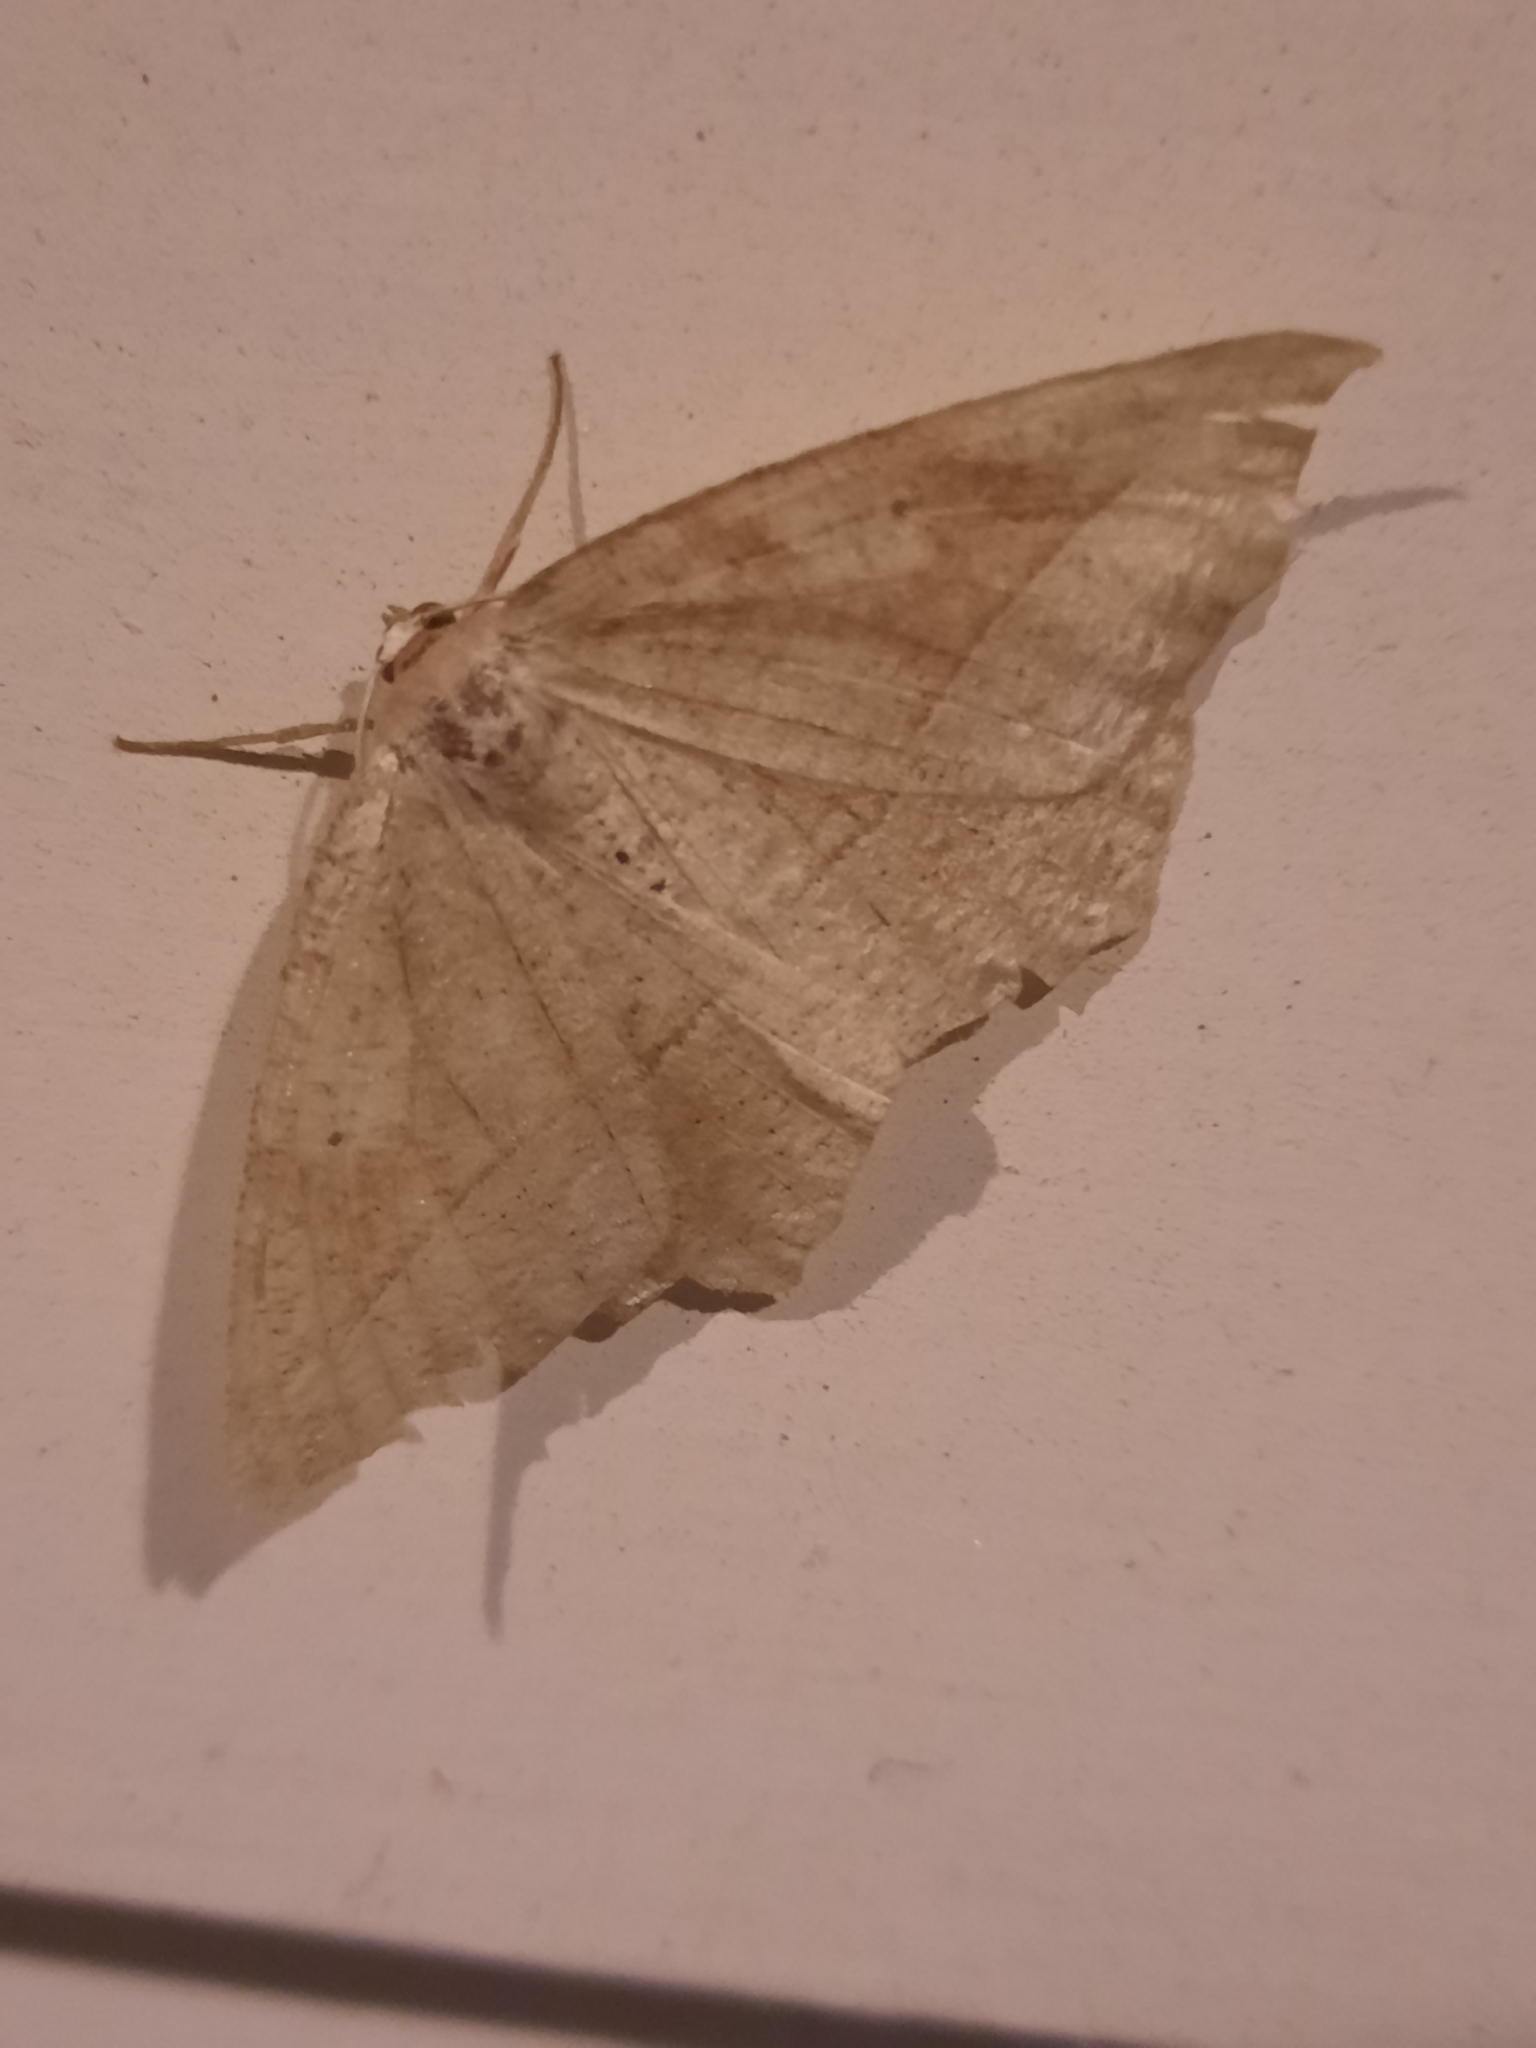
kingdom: Animalia
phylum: Arthropoda
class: Insecta
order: Lepidoptera
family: Geometridae
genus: Eutrapela
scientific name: Eutrapela clemataria
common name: Curved-toothed geometer
